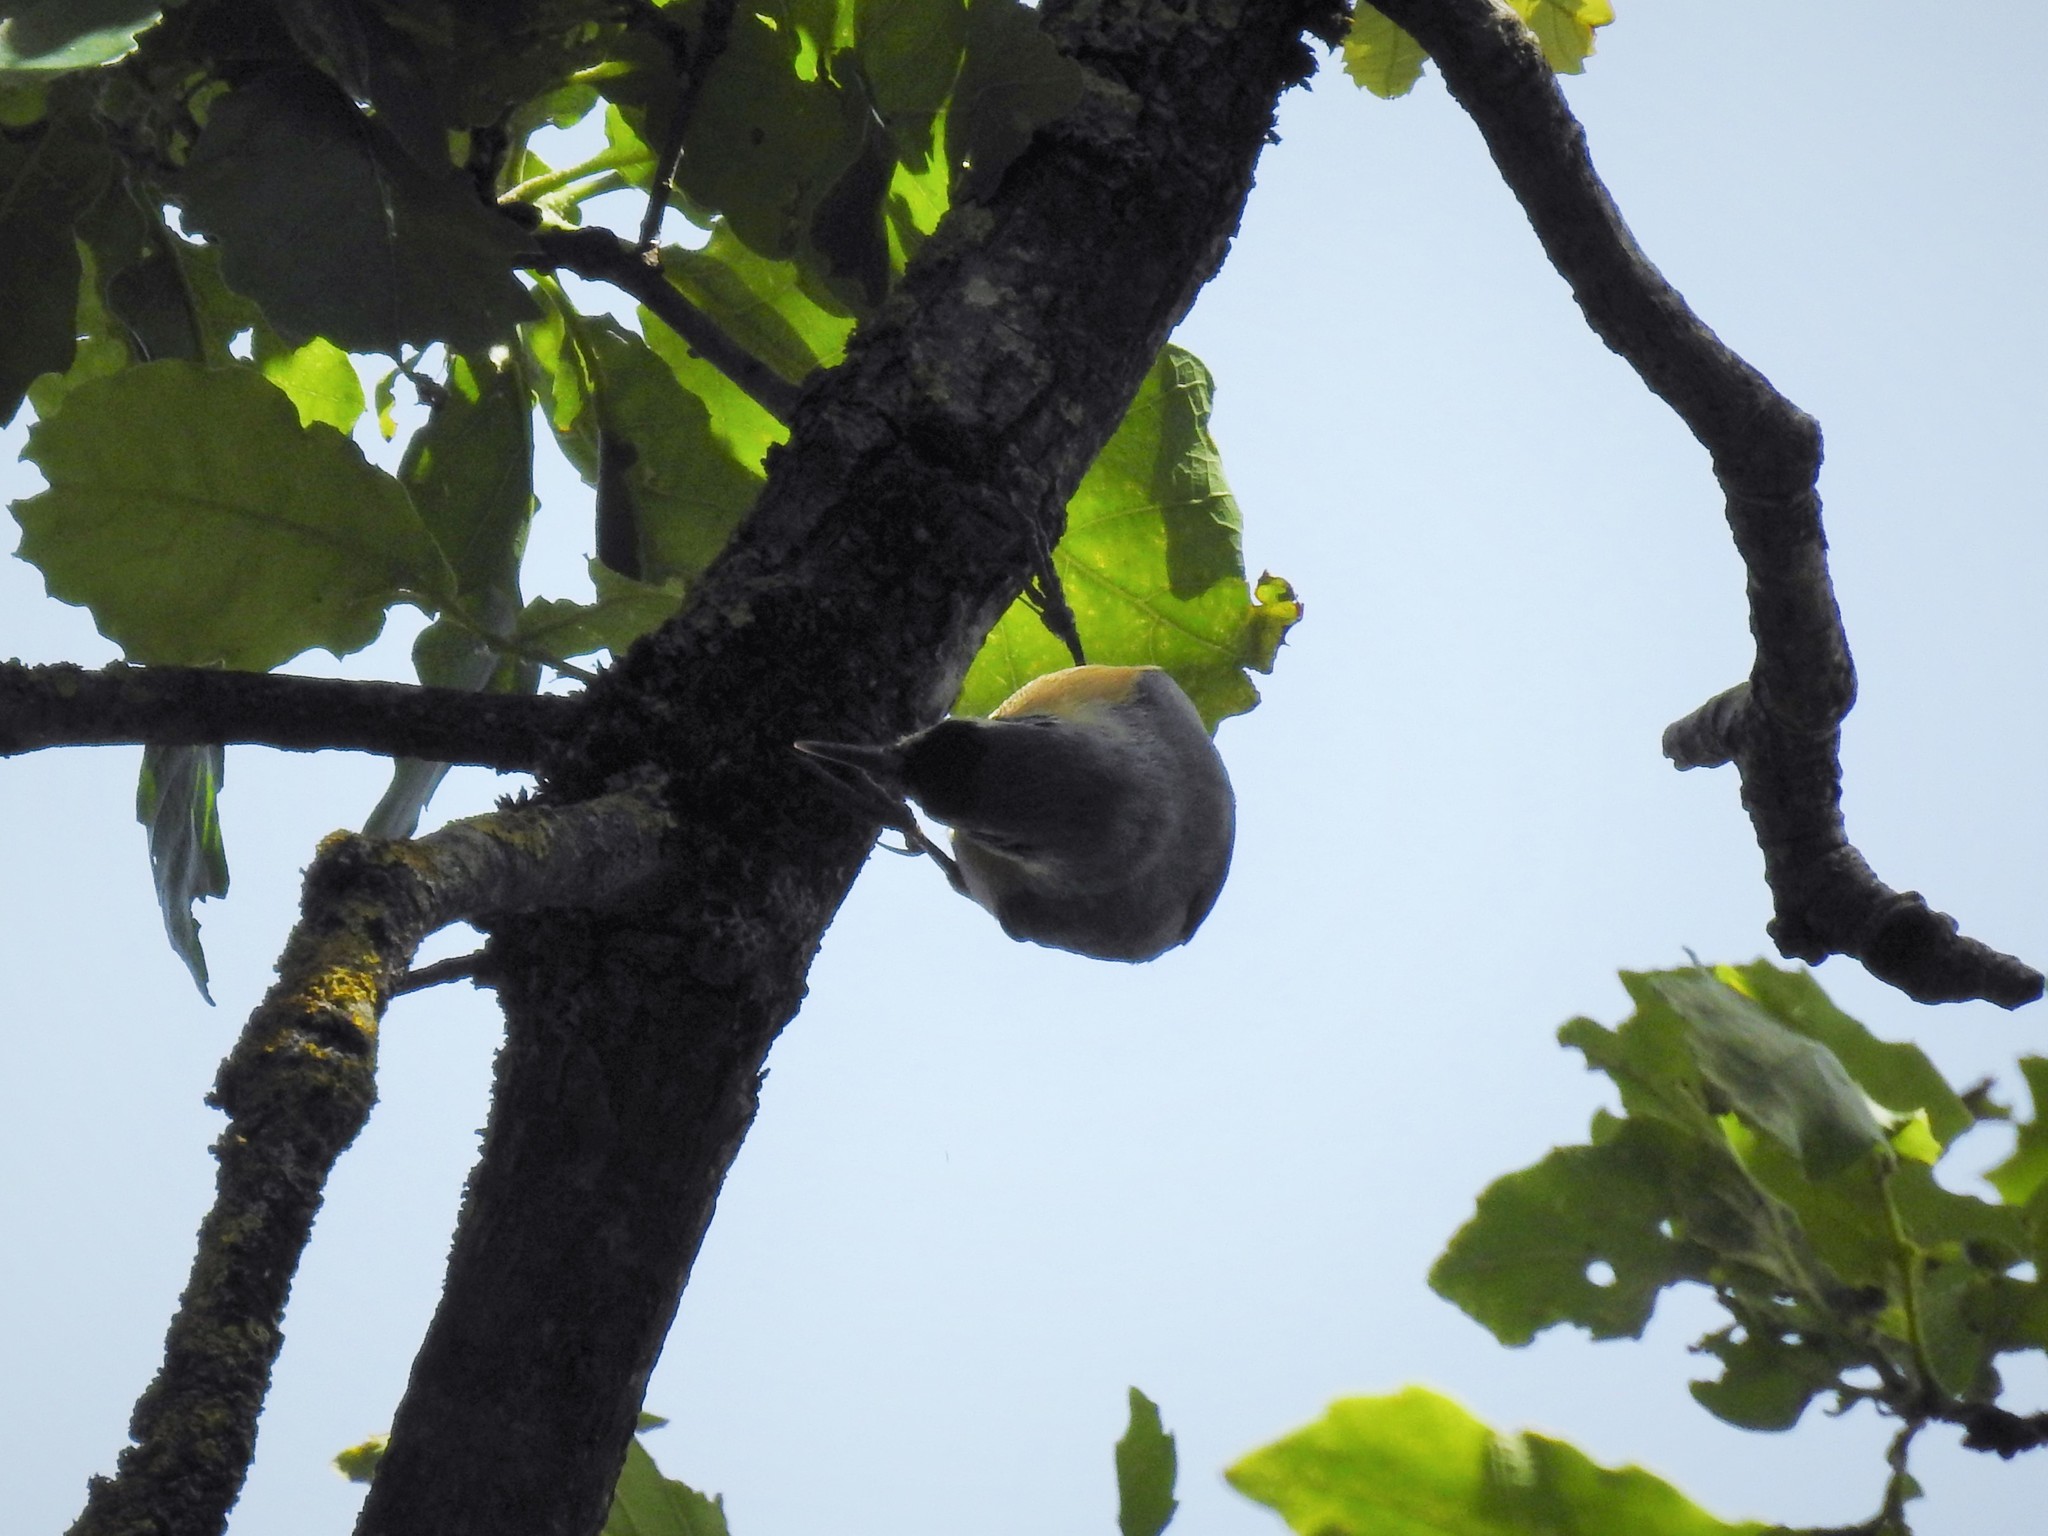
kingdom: Animalia
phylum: Chordata
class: Aves
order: Passeriformes
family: Sittidae
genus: Sitta
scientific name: Sitta ledanti
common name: Algerian nuthatch
